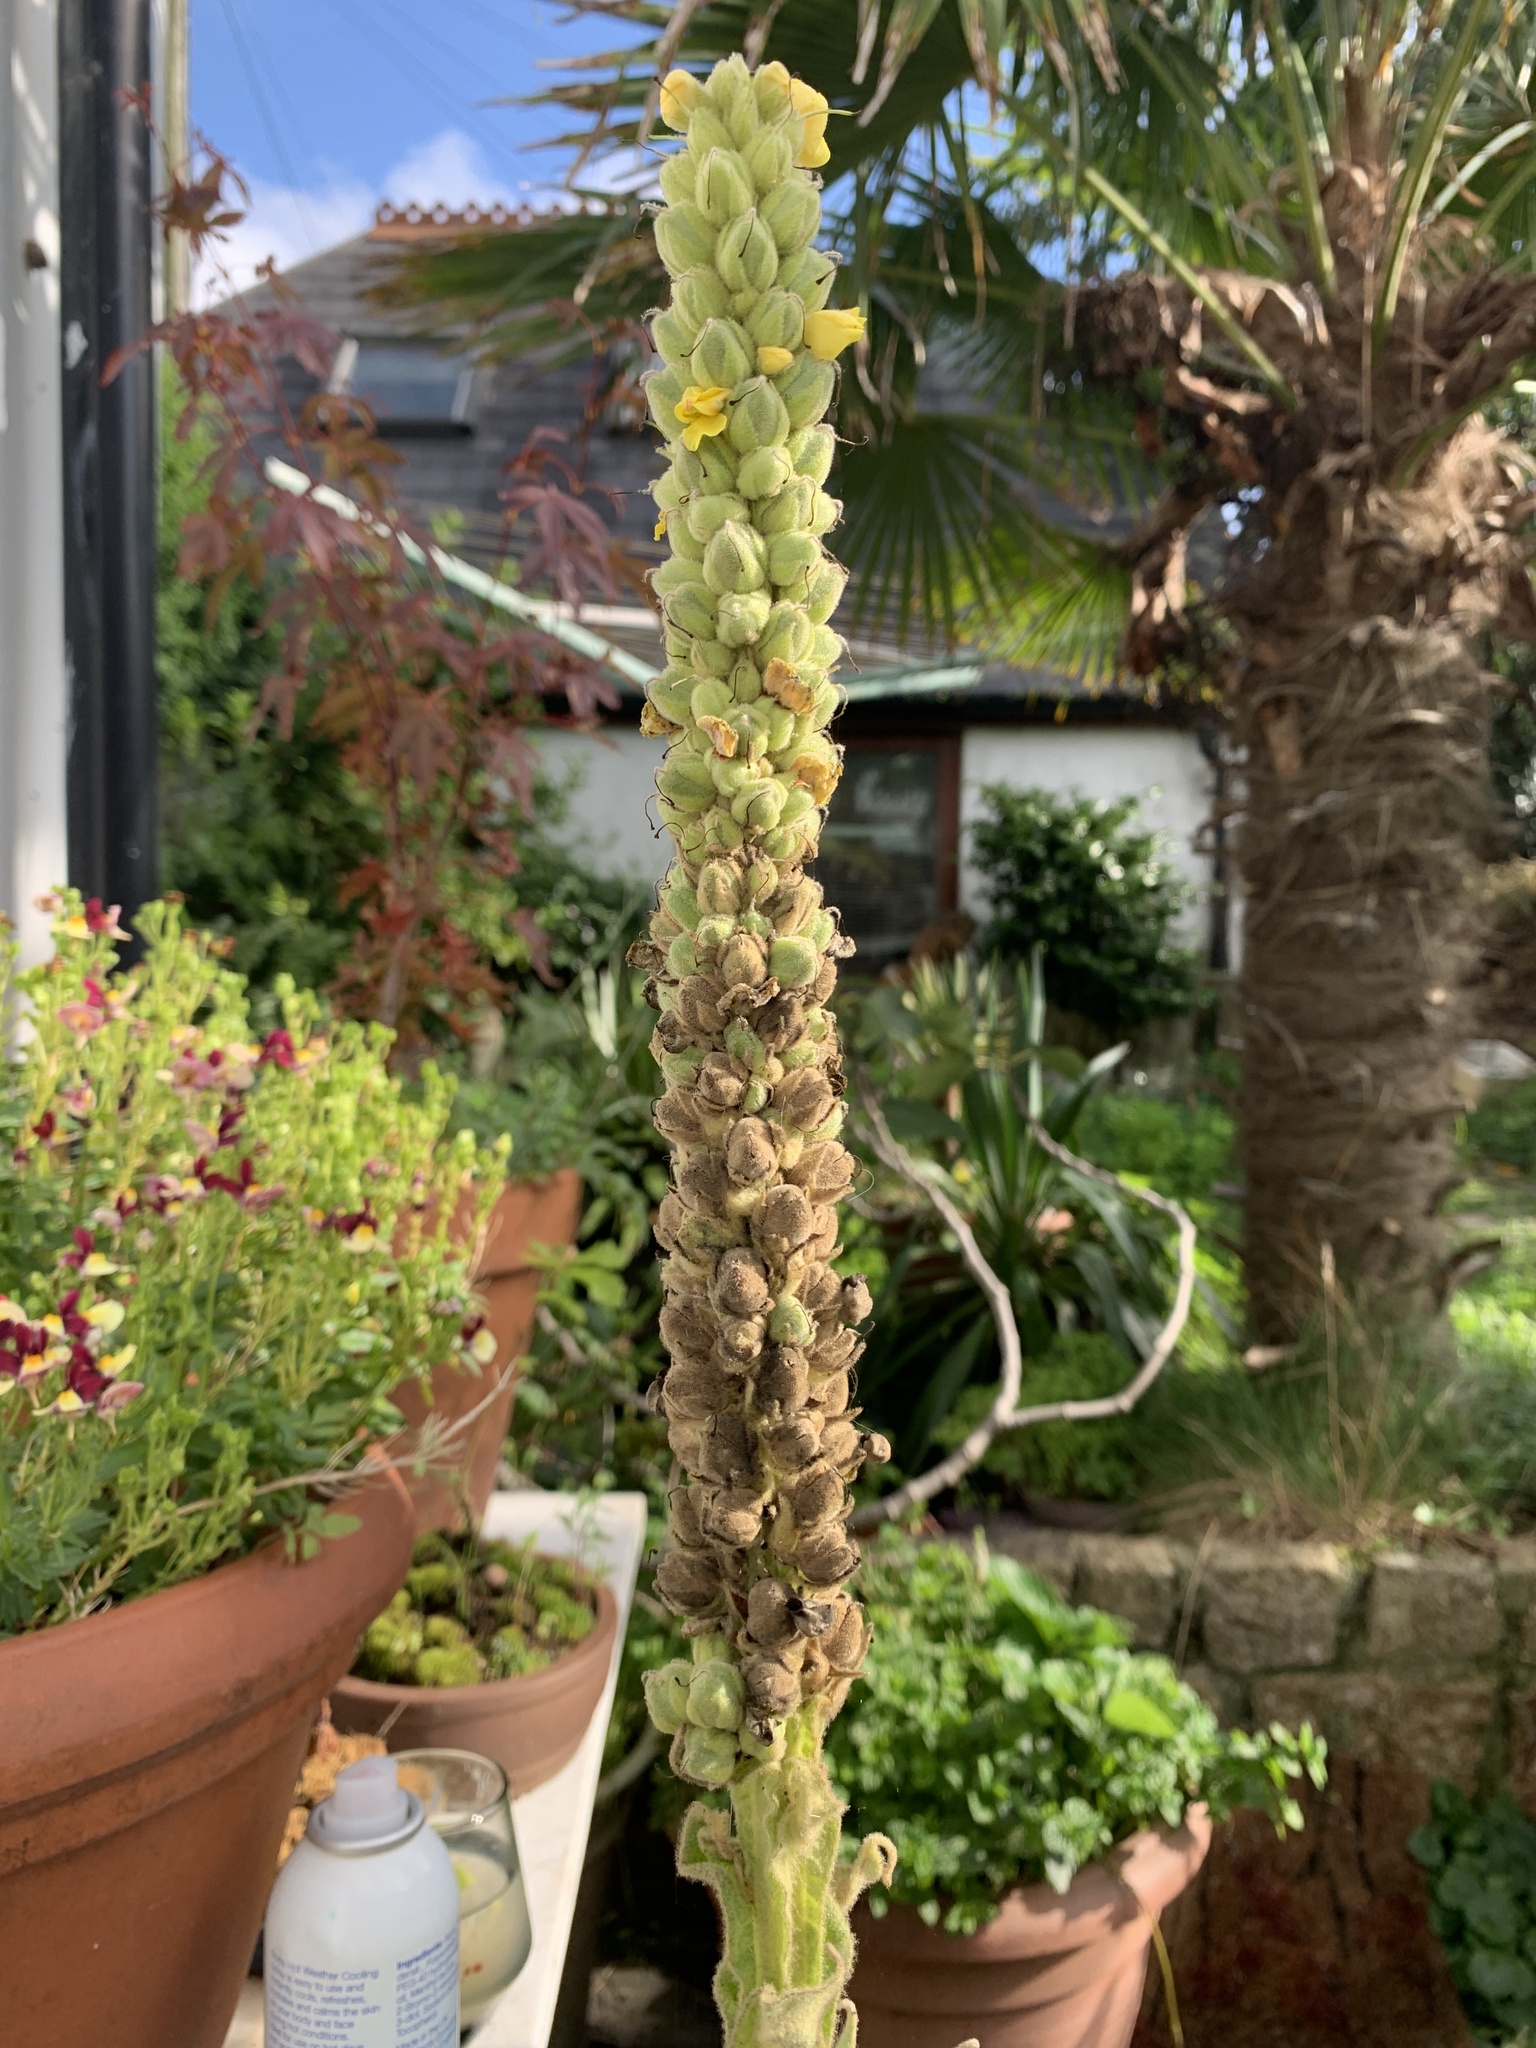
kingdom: Plantae
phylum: Tracheophyta
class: Magnoliopsida
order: Lamiales
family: Scrophulariaceae
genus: Verbascum
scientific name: Verbascum thapsus
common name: Common mullein
